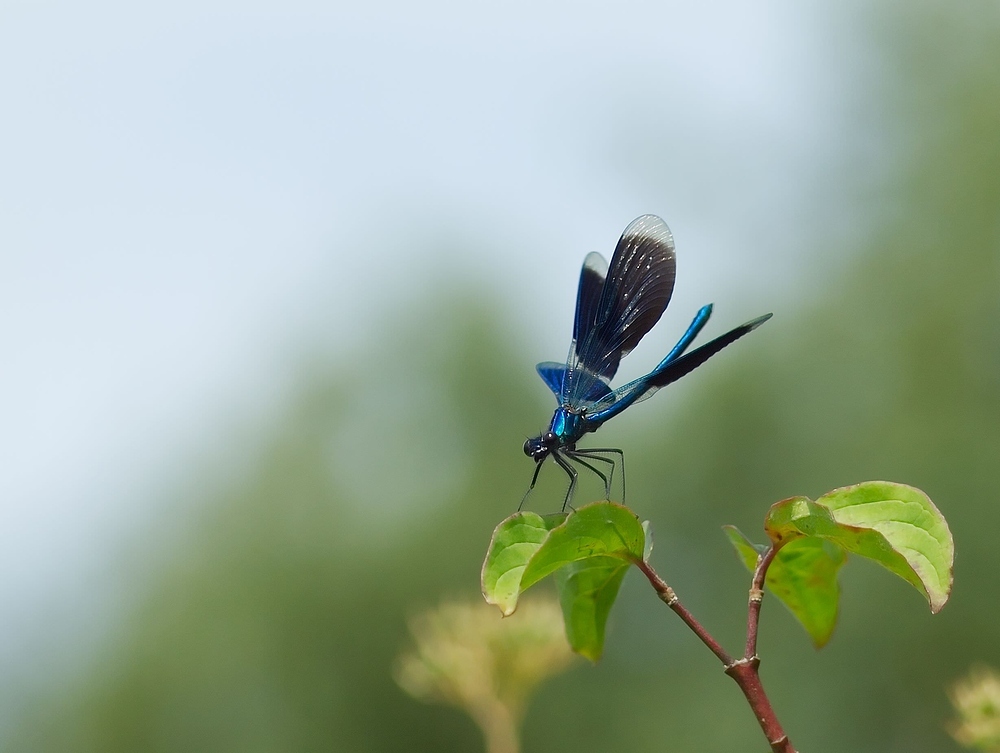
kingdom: Animalia
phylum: Arthropoda
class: Insecta
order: Odonata
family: Calopterygidae
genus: Calopteryx
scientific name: Calopteryx splendens
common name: Banded demoiselle
